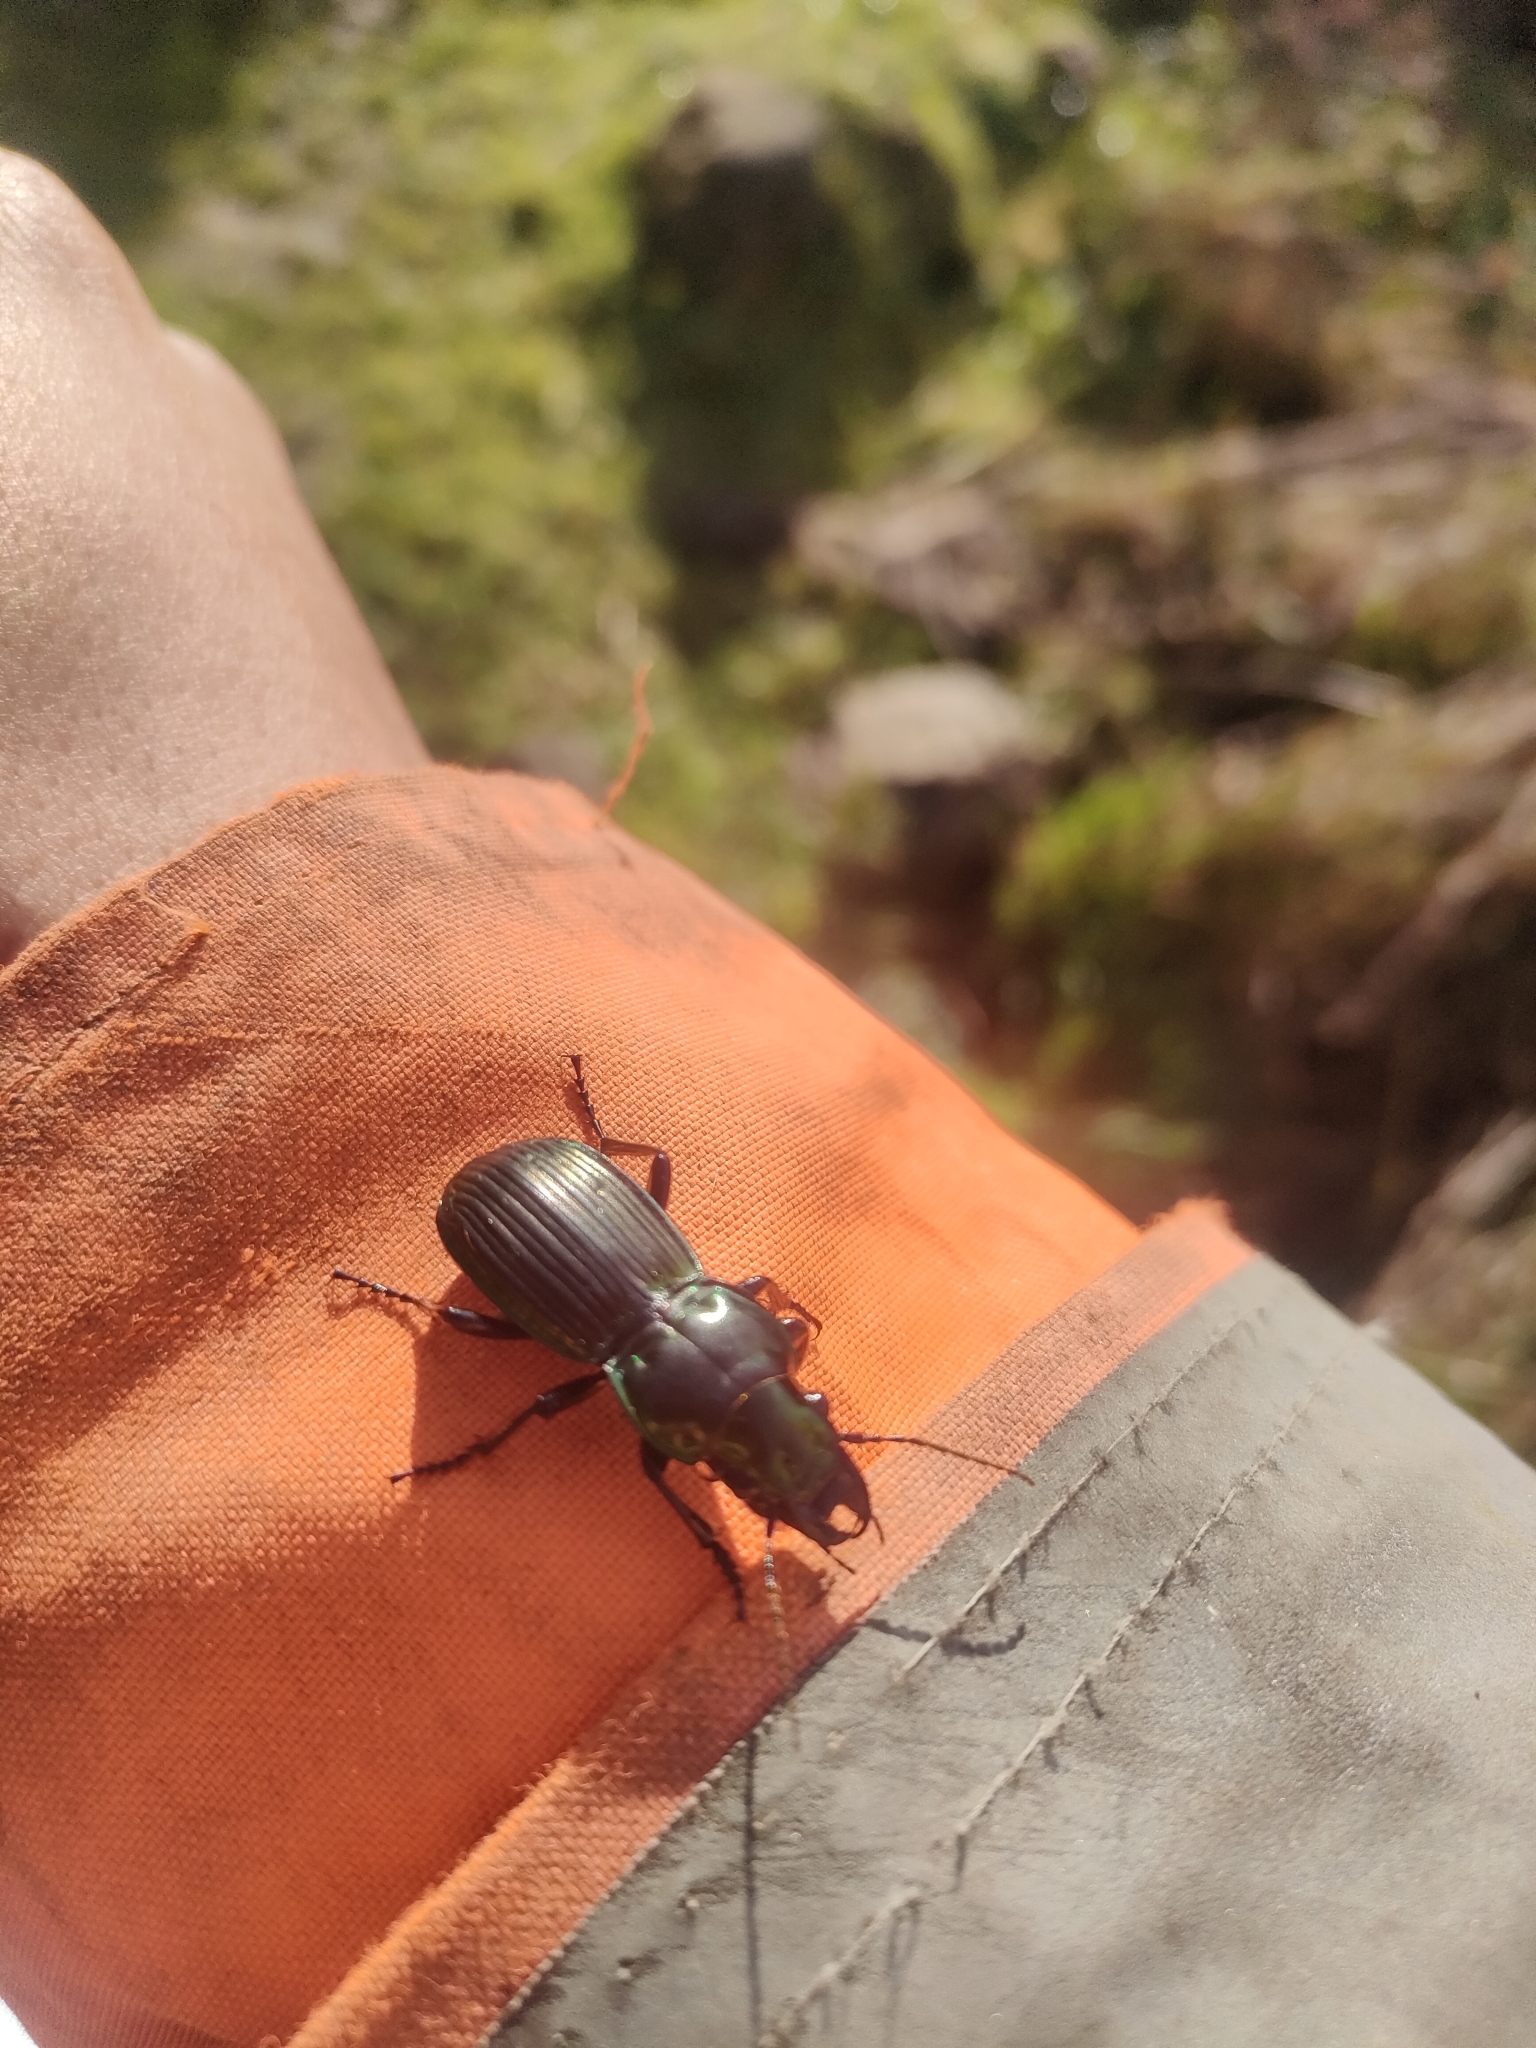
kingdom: Animalia
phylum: Arthropoda
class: Insecta
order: Coleoptera
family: Carabidae
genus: Megadromus
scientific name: Megadromus antarcticus
